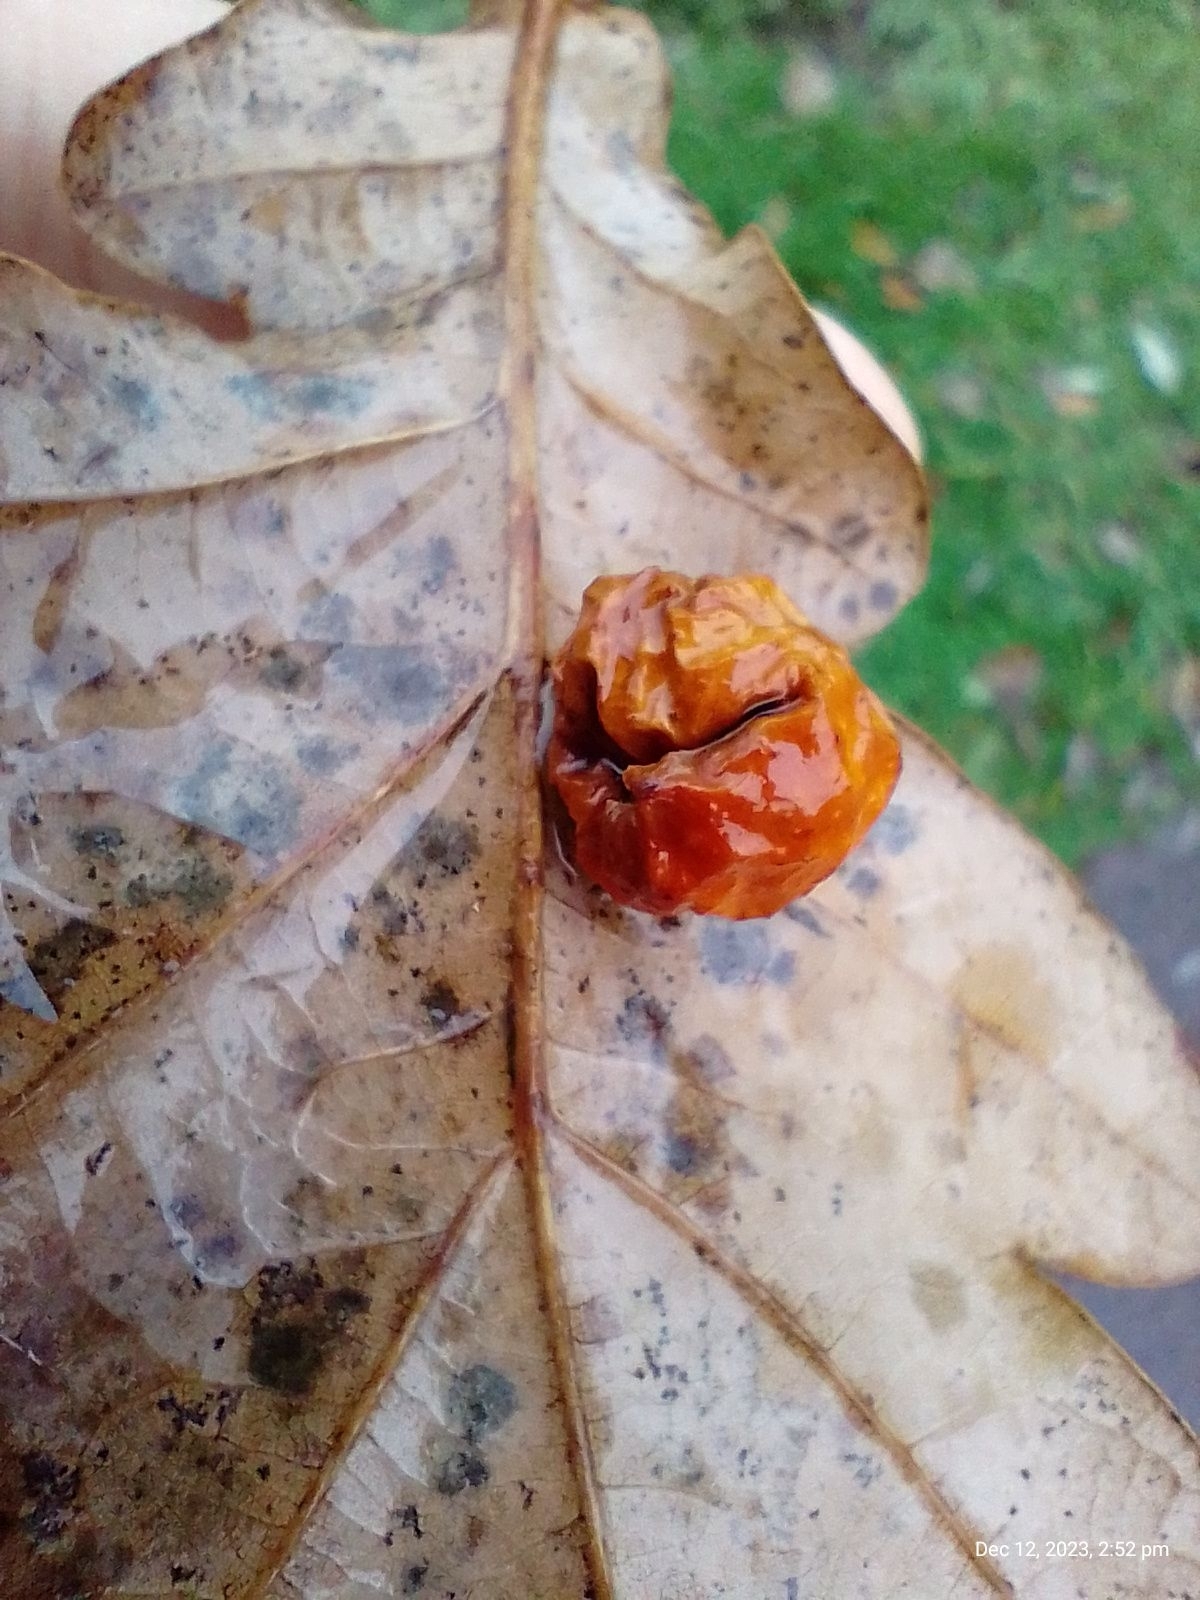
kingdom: Animalia
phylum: Arthropoda
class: Insecta
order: Hymenoptera
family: Cynipidae
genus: Cynips
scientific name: Cynips quercusfolii
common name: Cherry gall
